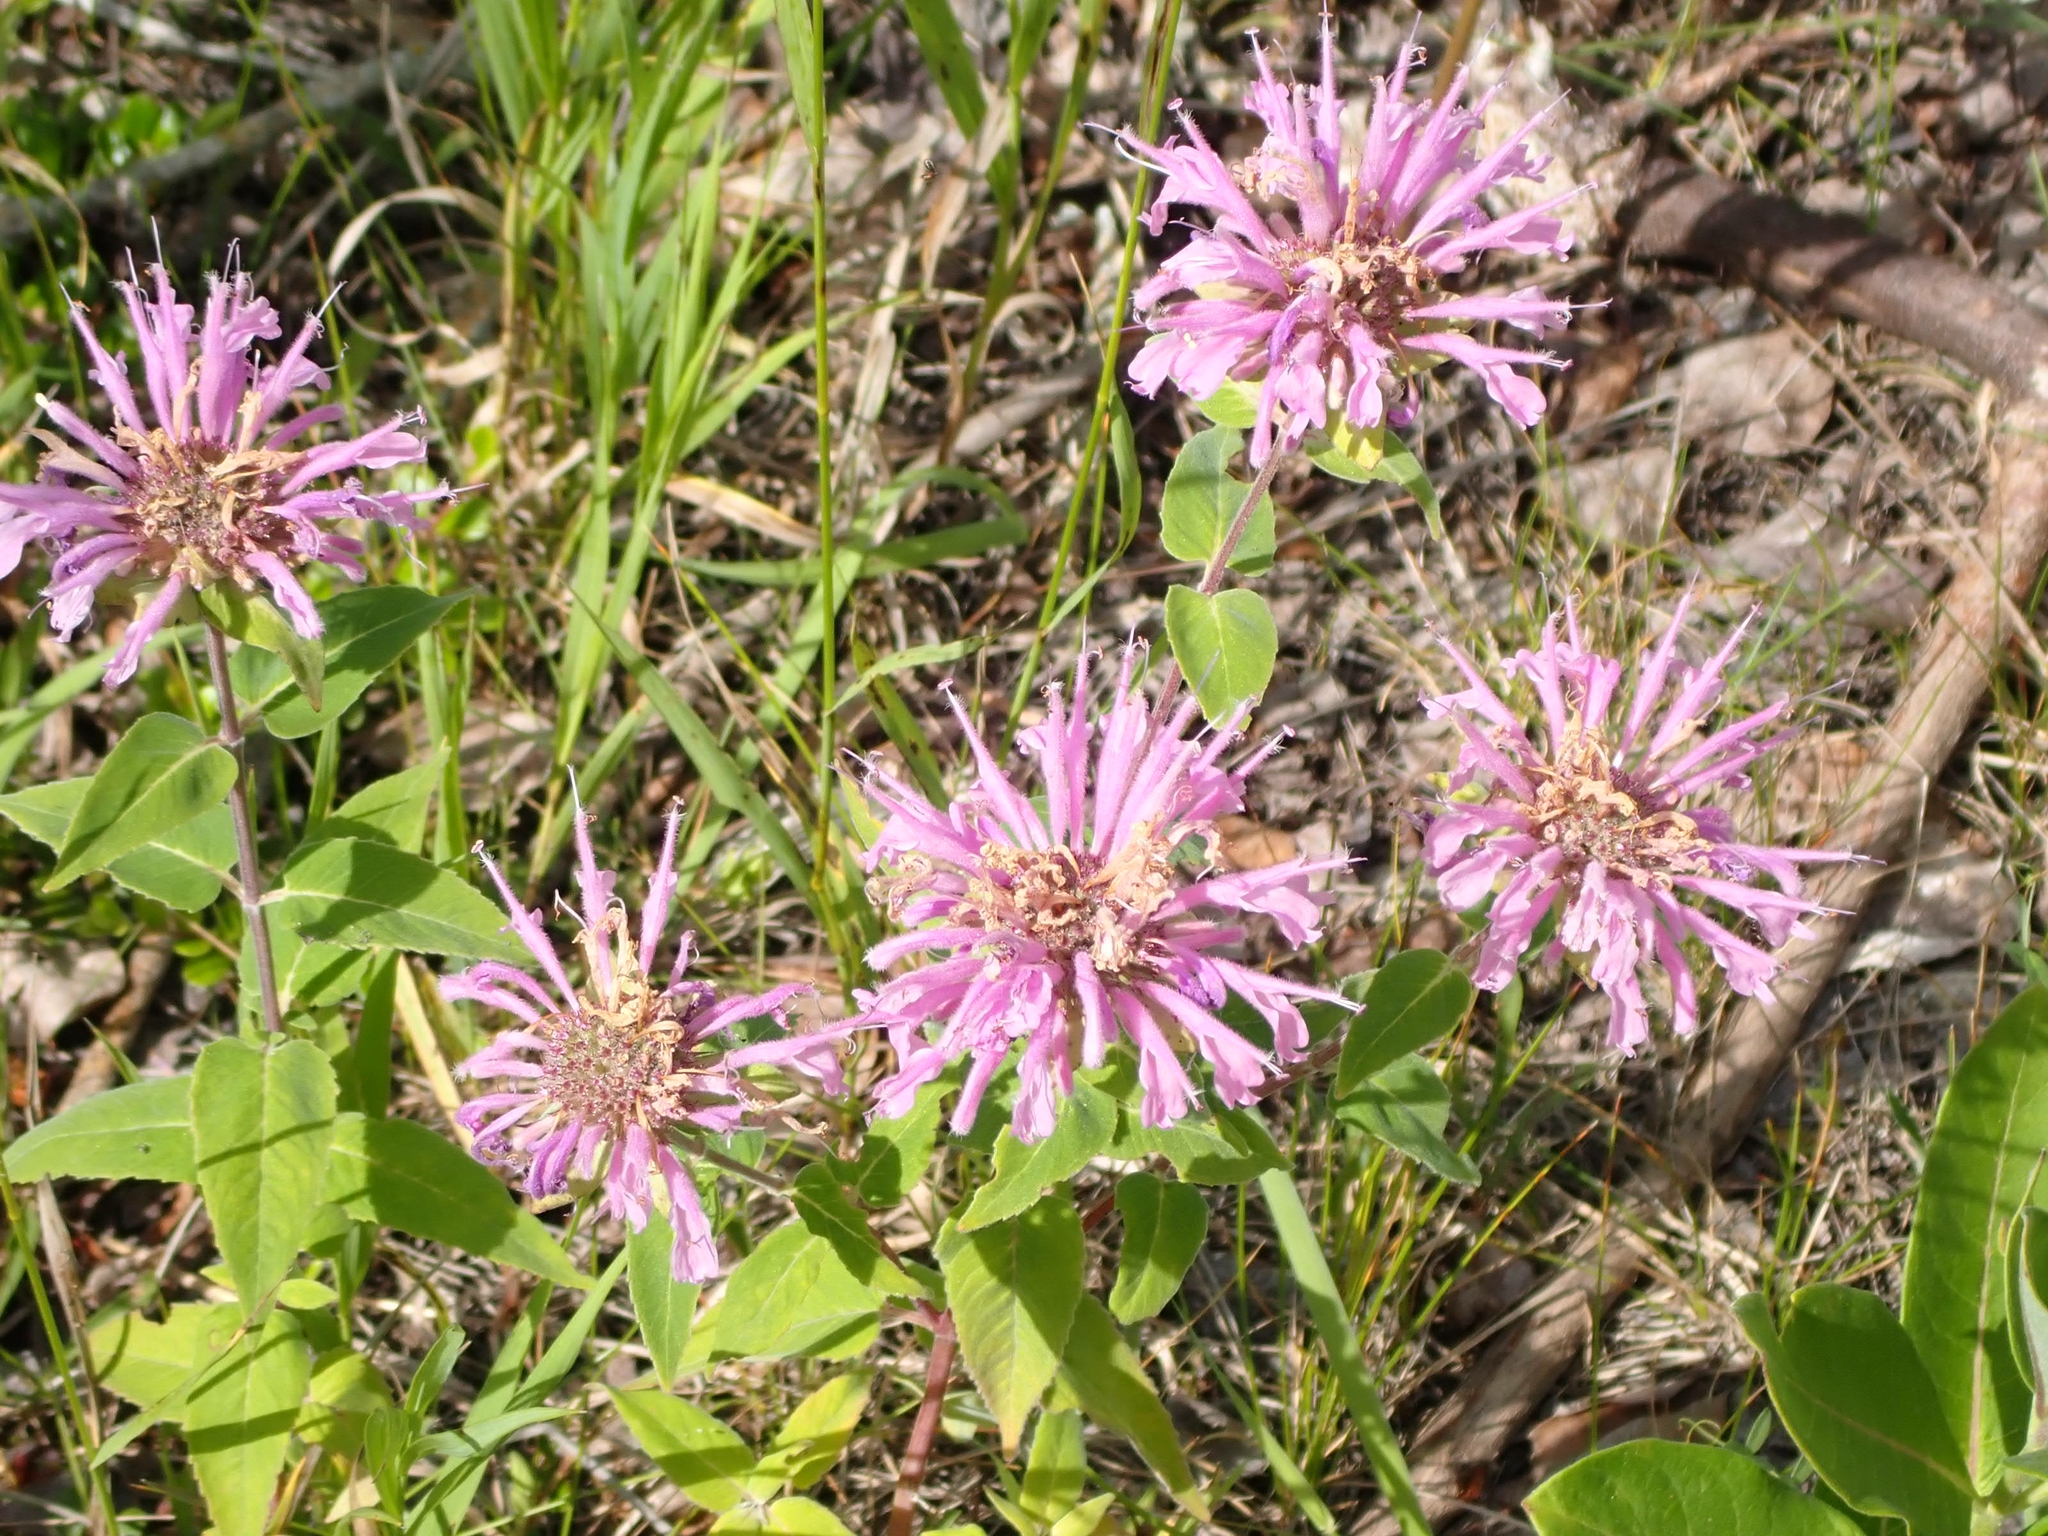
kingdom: Plantae
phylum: Tracheophyta
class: Magnoliopsida
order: Lamiales
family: Lamiaceae
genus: Monarda
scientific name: Monarda fistulosa
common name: Purple beebalm
